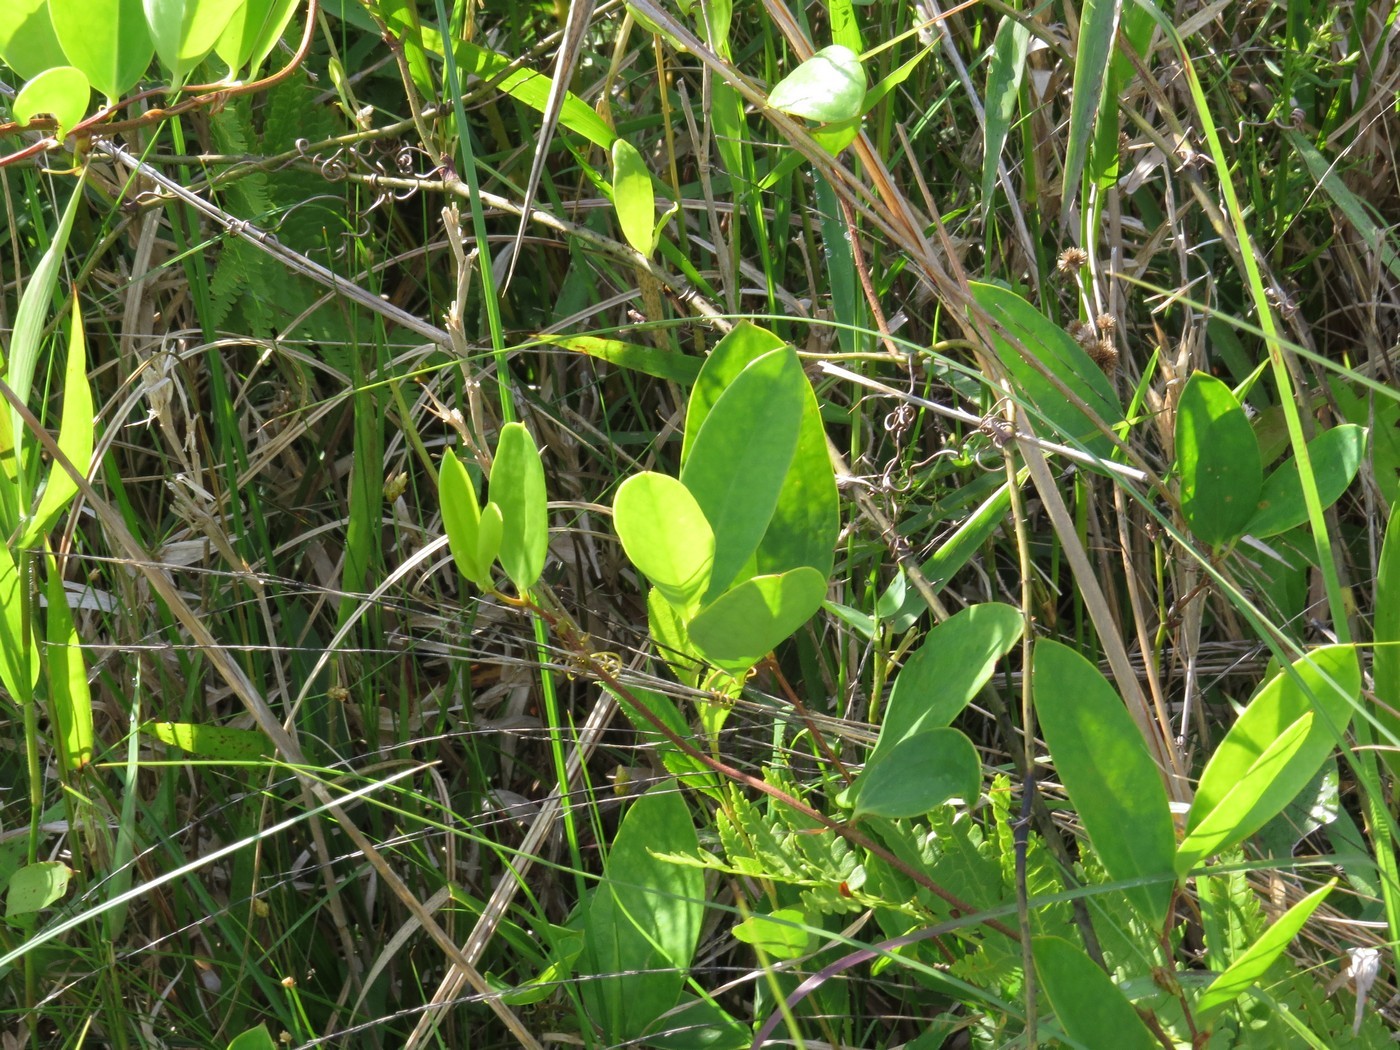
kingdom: Plantae
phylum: Tracheophyta
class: Liliopsida
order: Liliales
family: Smilacaceae
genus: Smilax
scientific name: Smilax laurifolia
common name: Bamboovine
